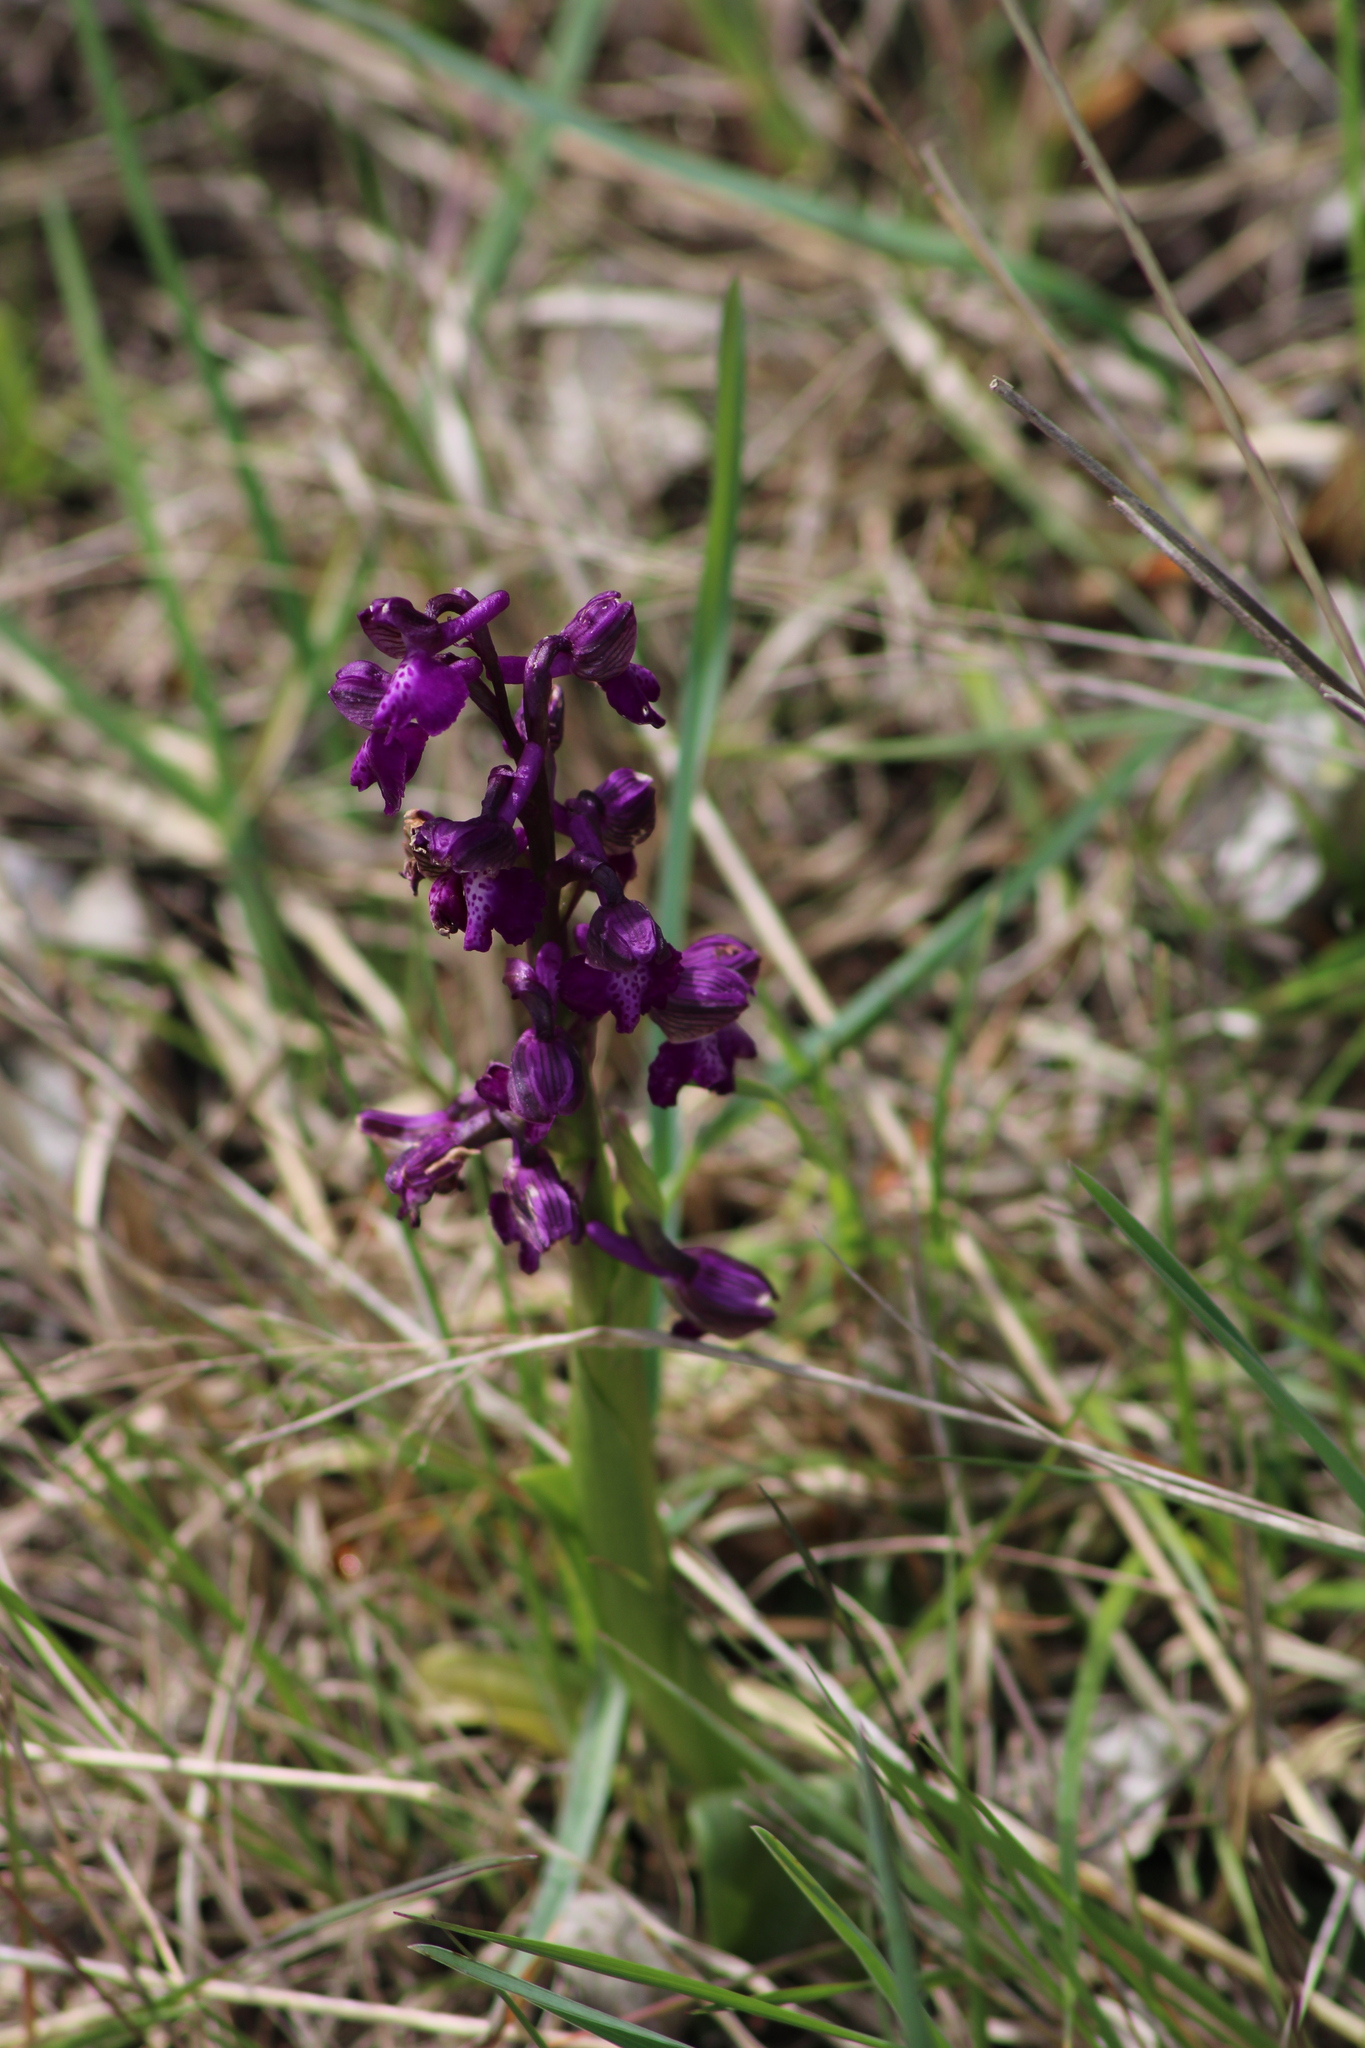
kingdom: Plantae
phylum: Tracheophyta
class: Liliopsida
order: Asparagales
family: Orchidaceae
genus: Anacamptis
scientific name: Anacamptis morio
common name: Green-winged orchid
